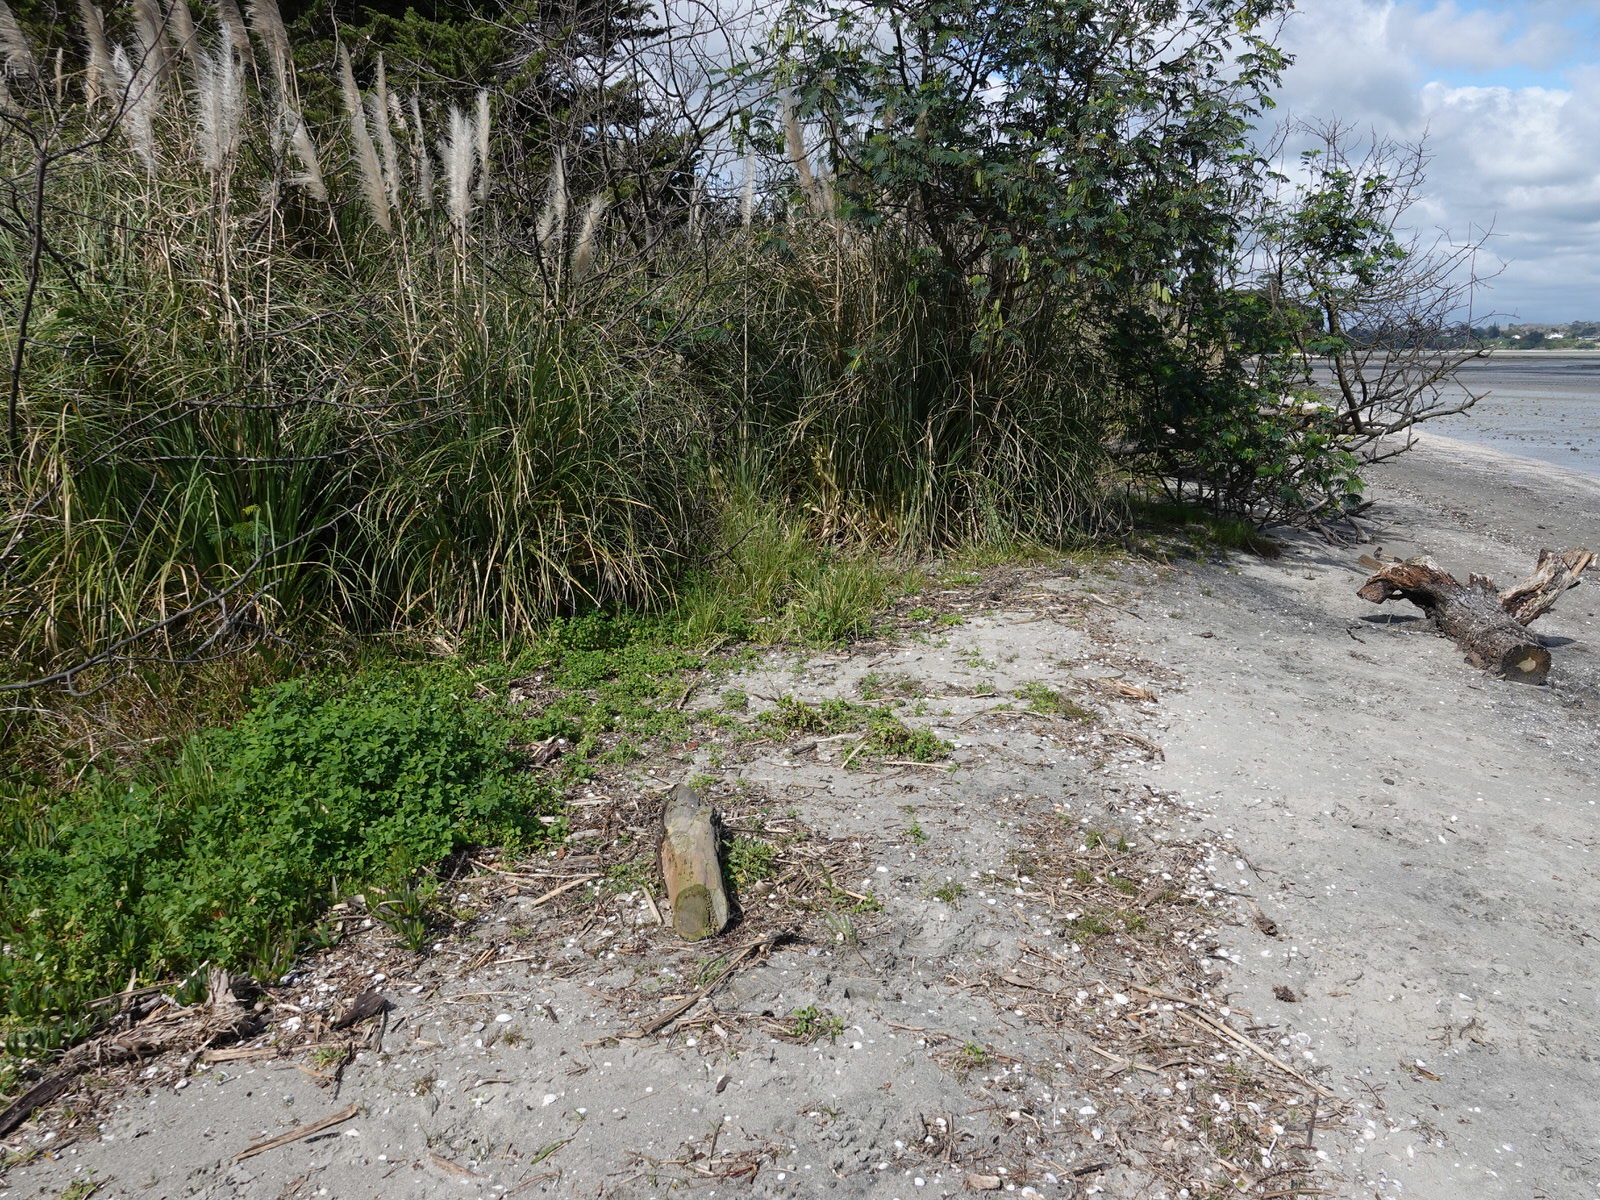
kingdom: Plantae
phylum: Tracheophyta
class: Magnoliopsida
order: Brassicales
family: Brassicaceae
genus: Cakile
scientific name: Cakile edentula
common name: American sea rocket
